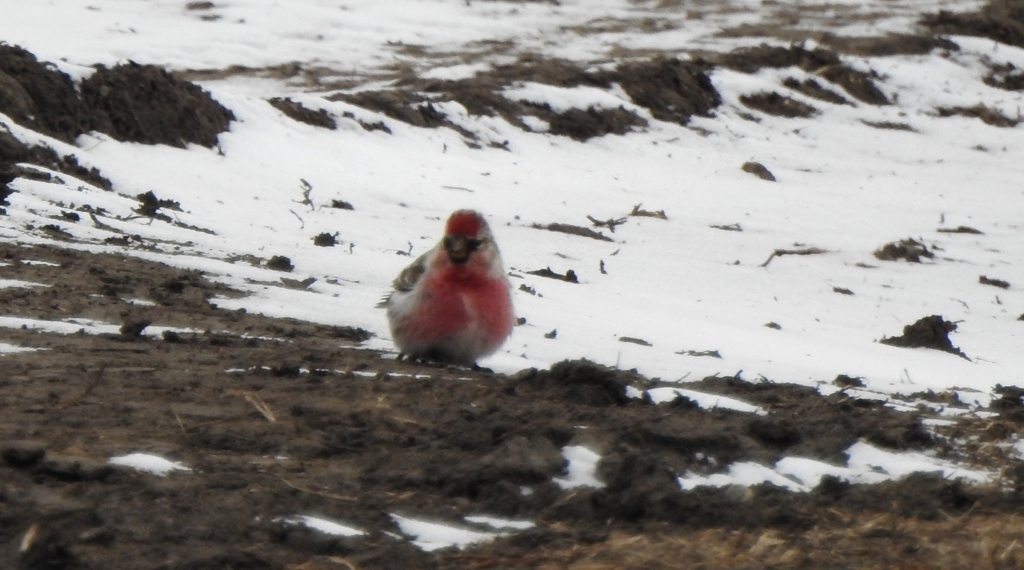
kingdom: Animalia
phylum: Chordata
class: Aves
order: Passeriformes
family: Fringillidae
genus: Acanthis
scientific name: Acanthis flammea
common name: Common redpoll
